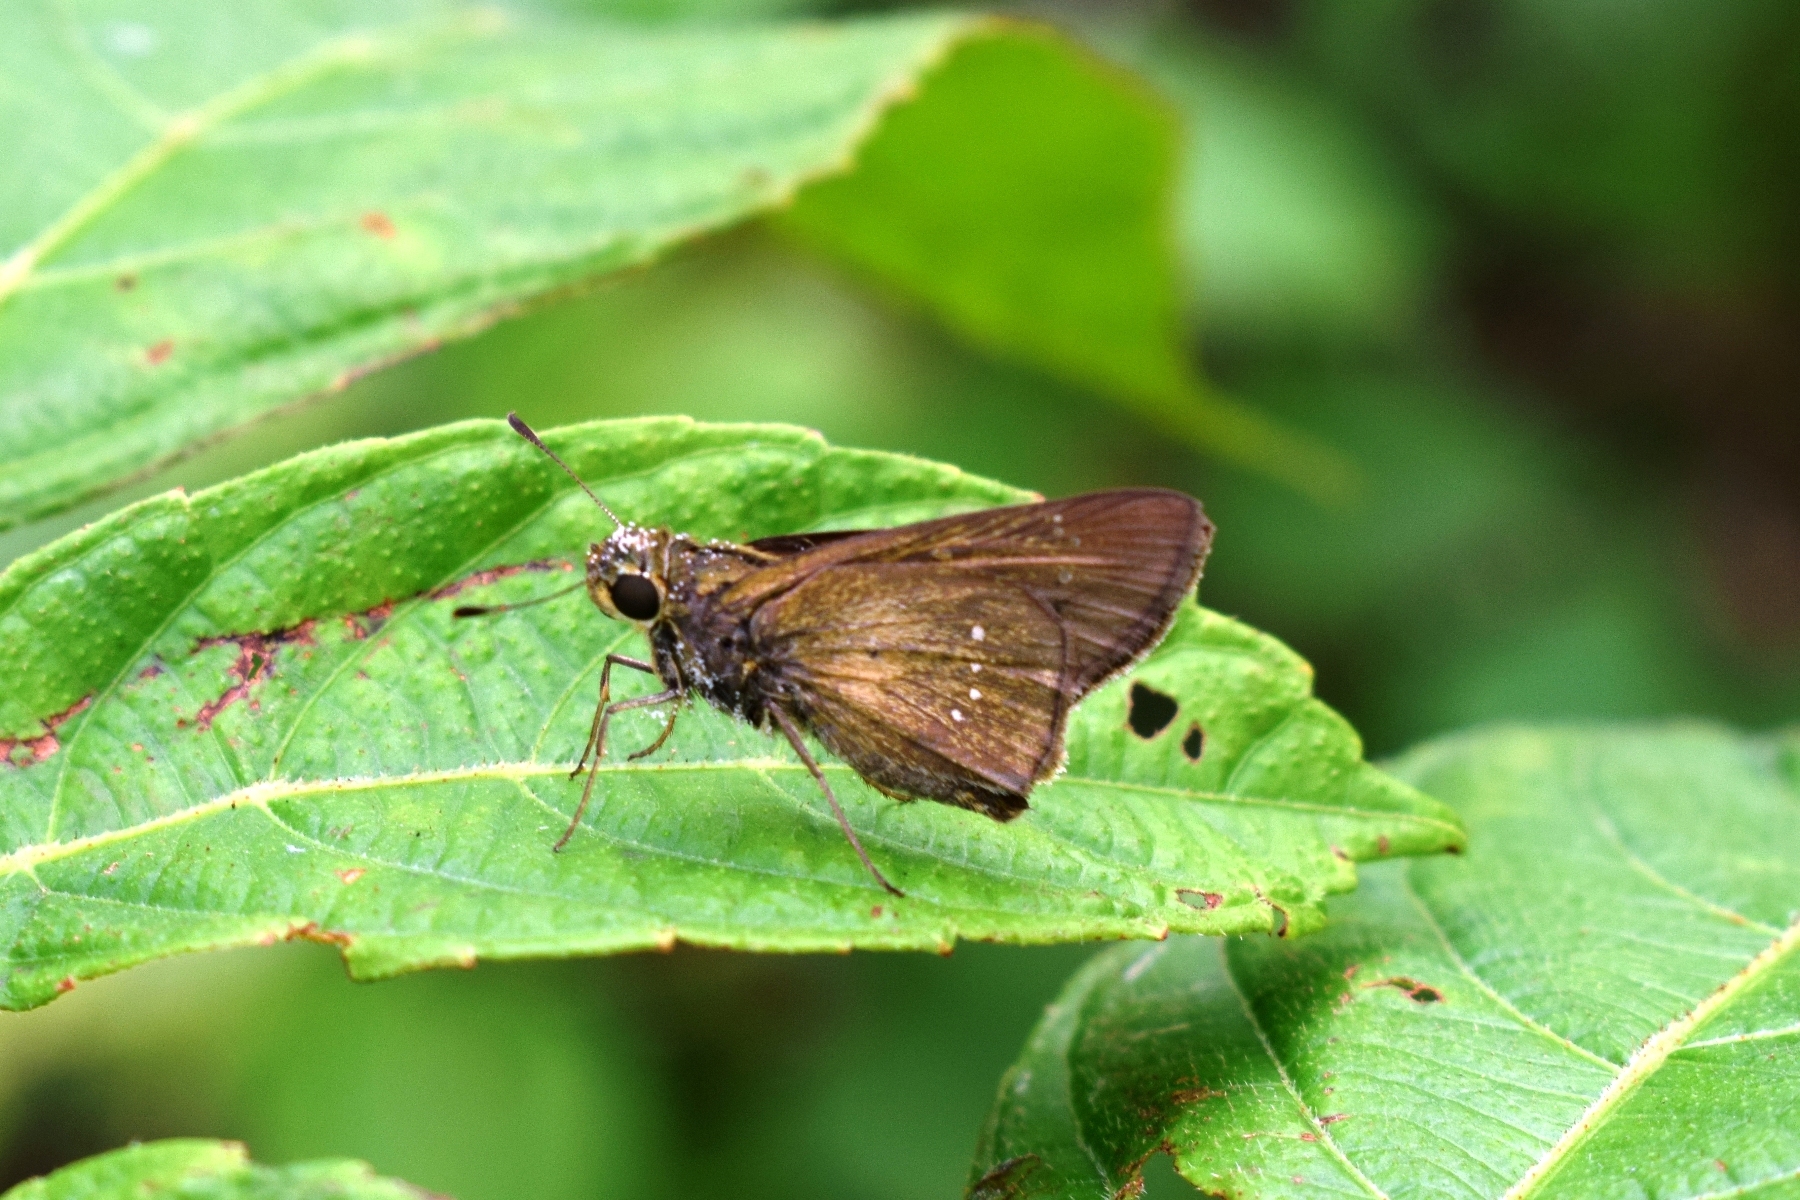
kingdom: Animalia
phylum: Arthropoda
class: Insecta
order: Lepidoptera
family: Hesperiidae
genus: Pelopidas
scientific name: Pelopidas mathias
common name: Black-branded swift
